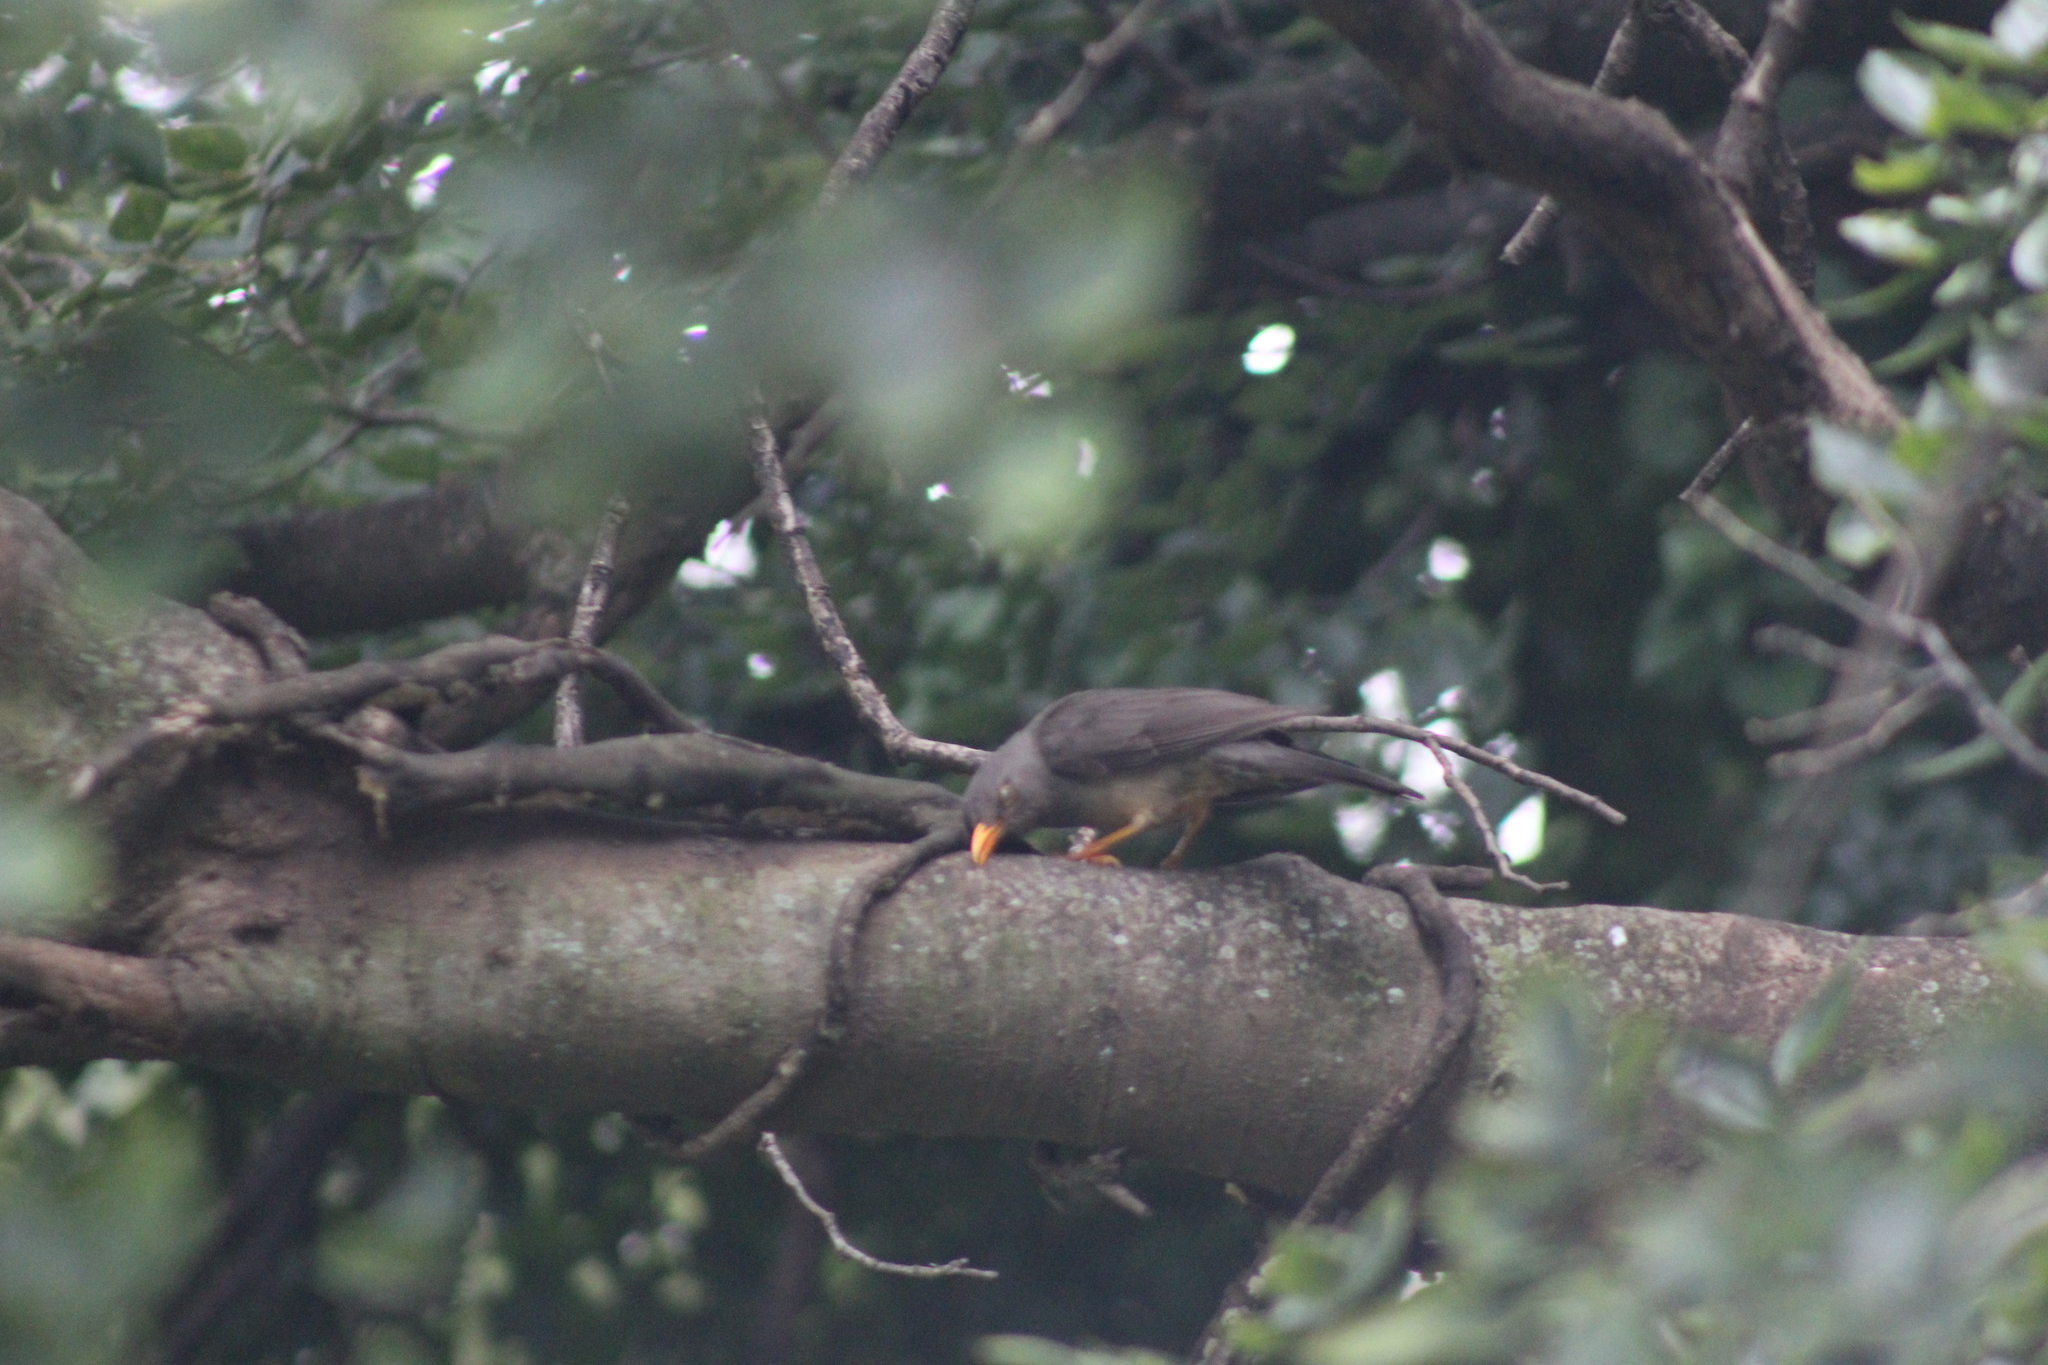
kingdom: Animalia
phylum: Chordata
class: Aves
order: Passeriformes
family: Turdidae
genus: Turdus
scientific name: Turdus smithi
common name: Karoo thrush
